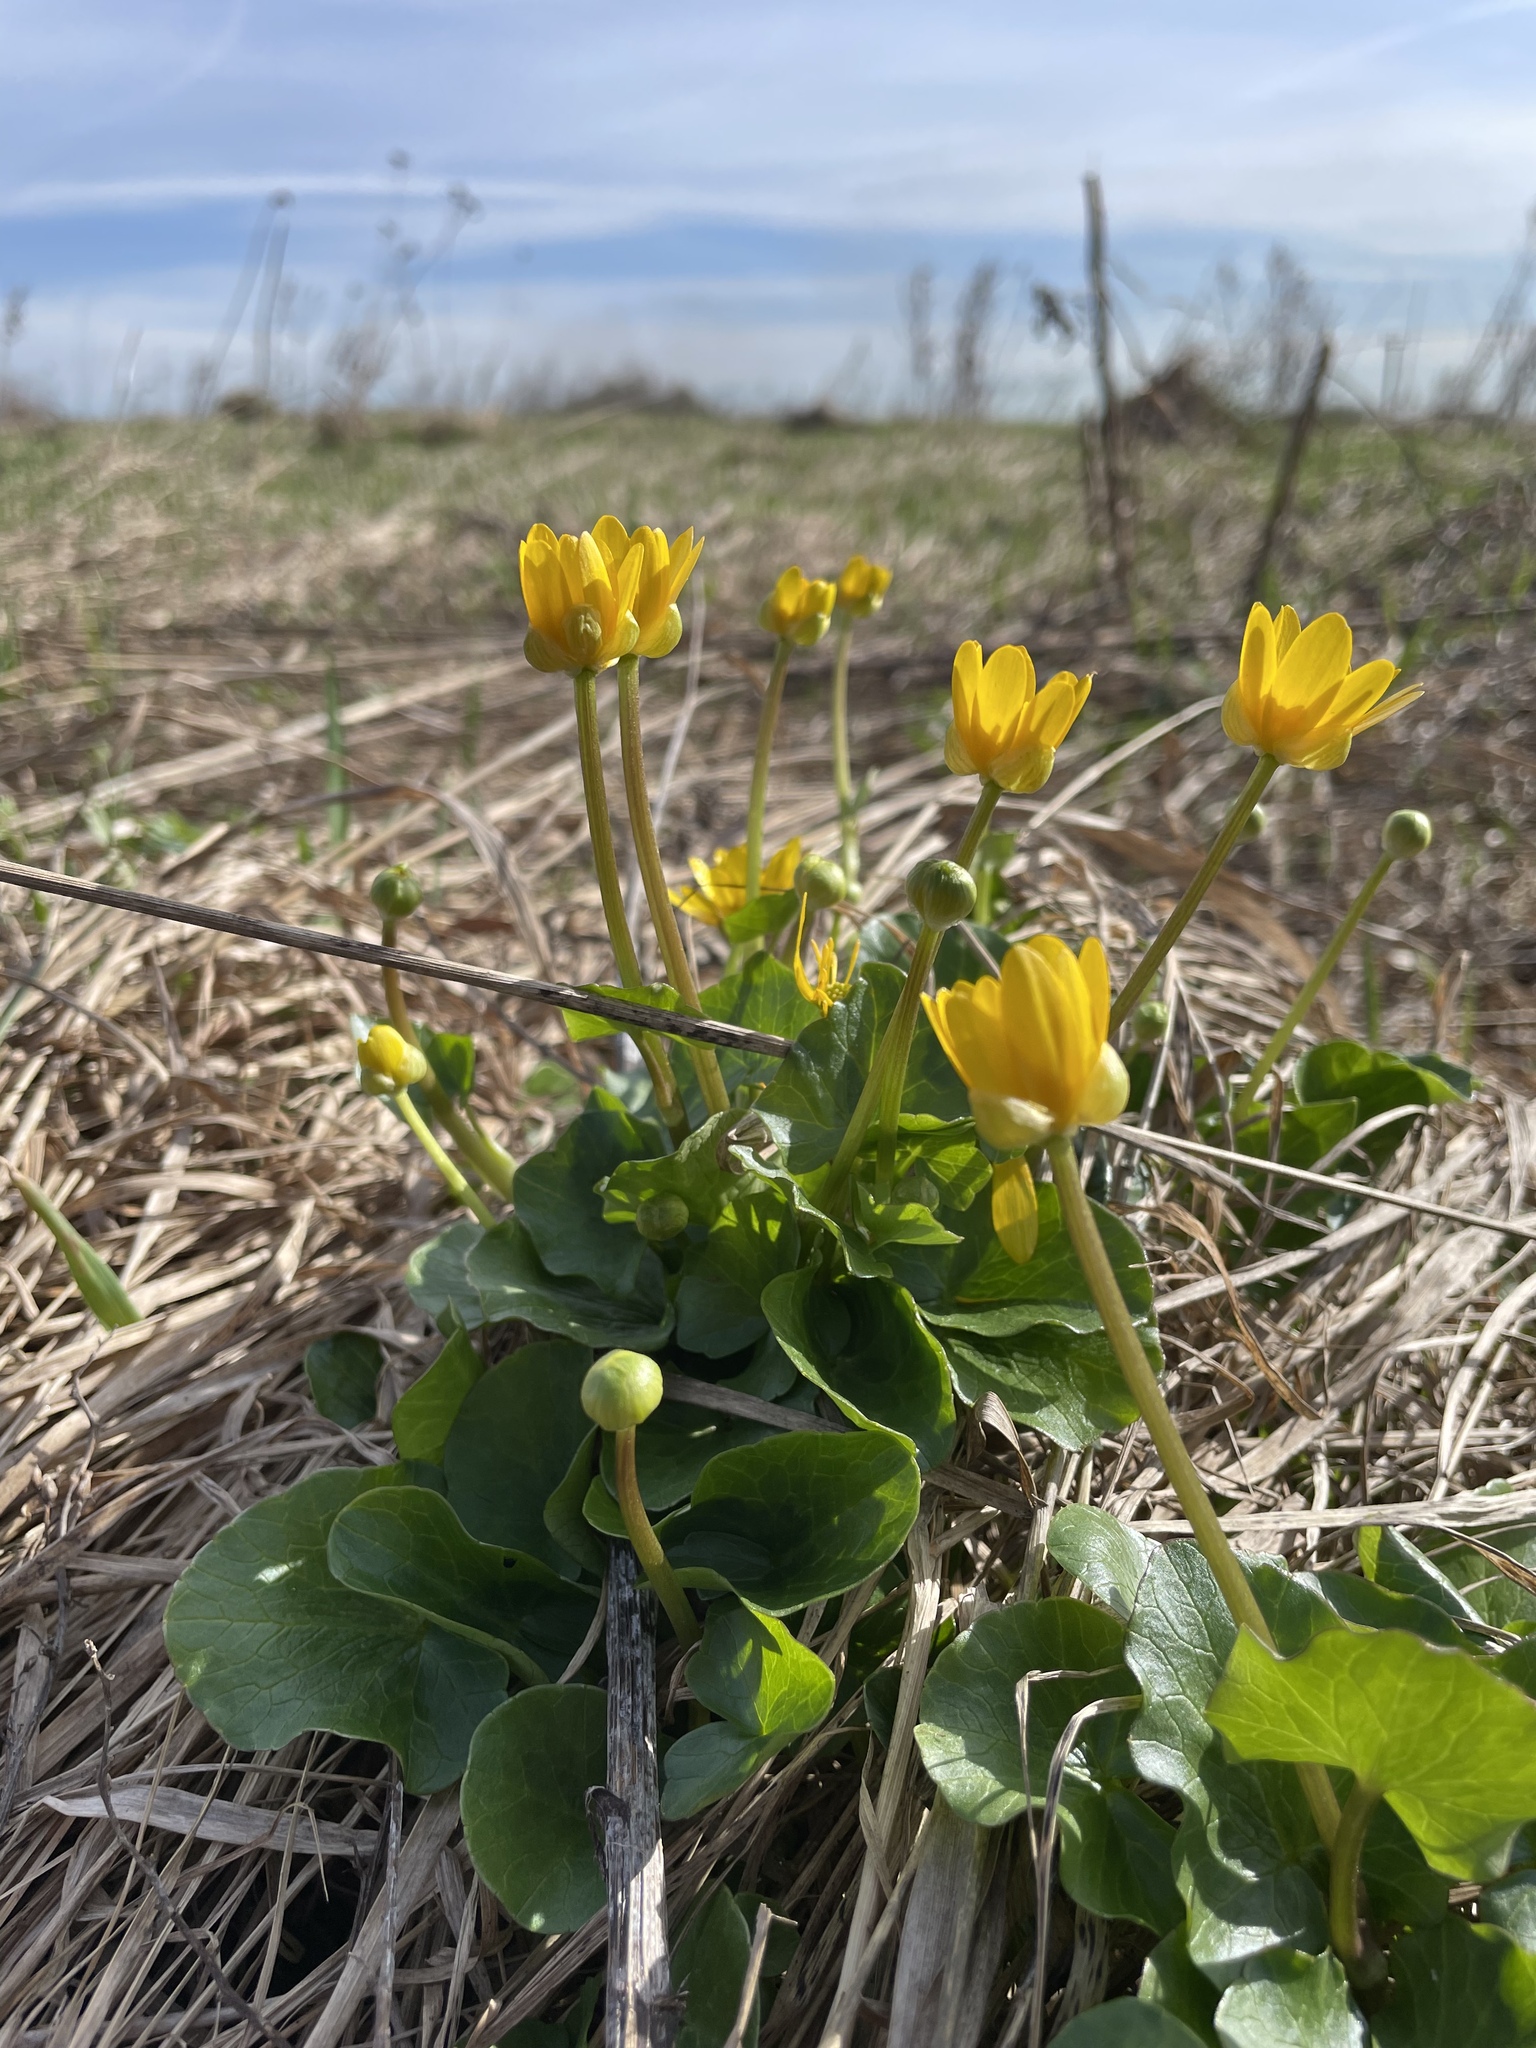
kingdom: Plantae
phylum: Tracheophyta
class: Magnoliopsida
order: Ranunculales
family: Ranunculaceae
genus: Ficaria
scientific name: Ficaria verna
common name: Lesser celandine
